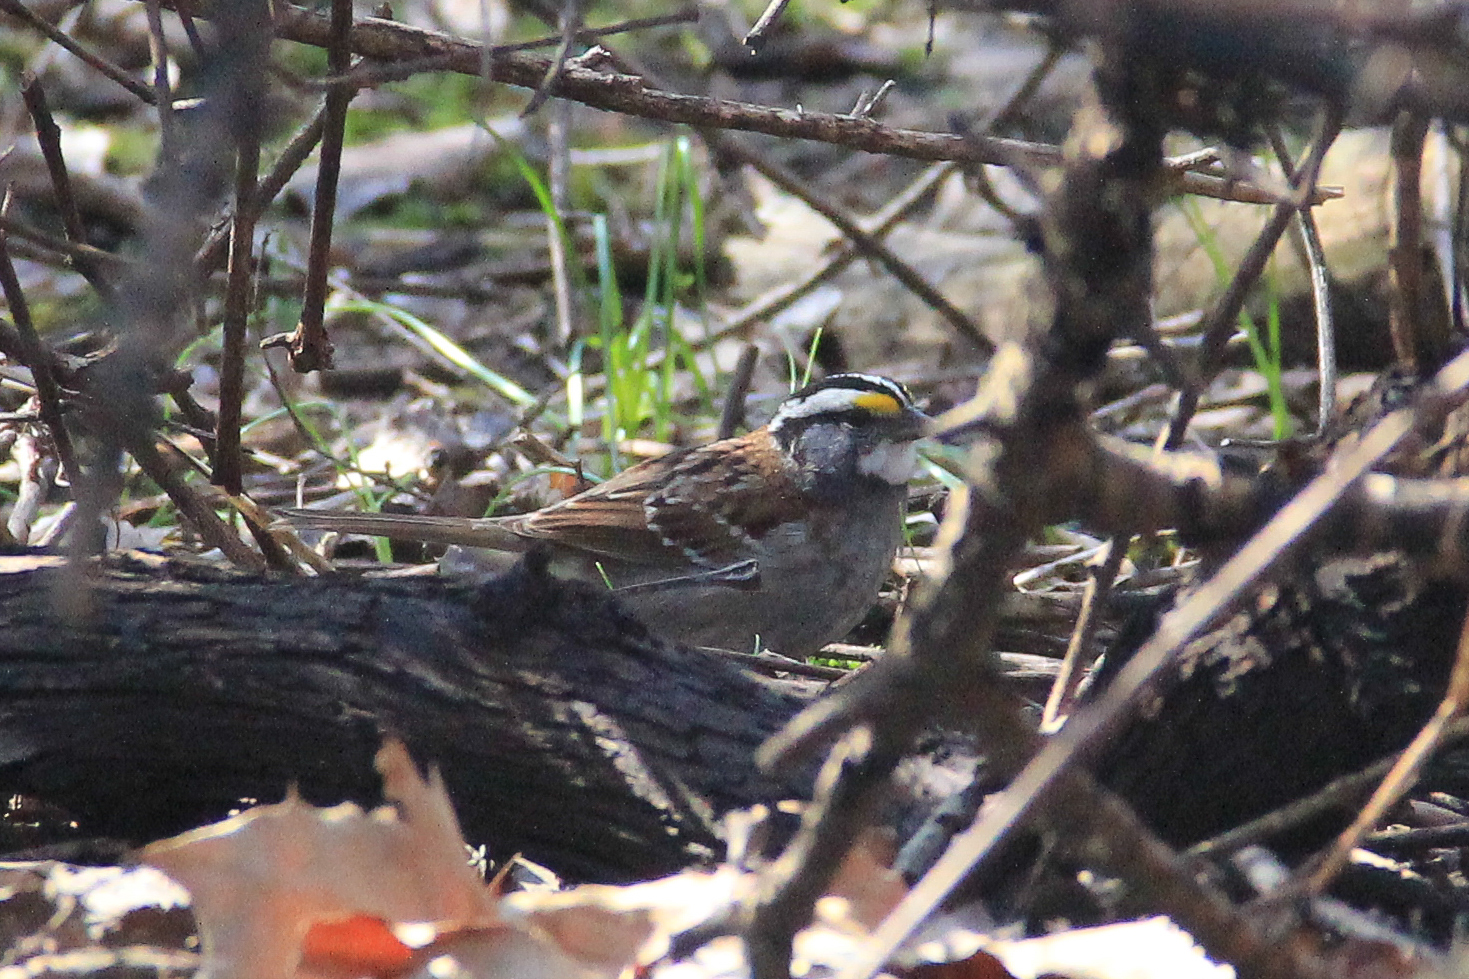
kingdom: Animalia
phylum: Chordata
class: Aves
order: Passeriformes
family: Passerellidae
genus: Zonotrichia
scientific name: Zonotrichia albicollis
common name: White-throated sparrow
